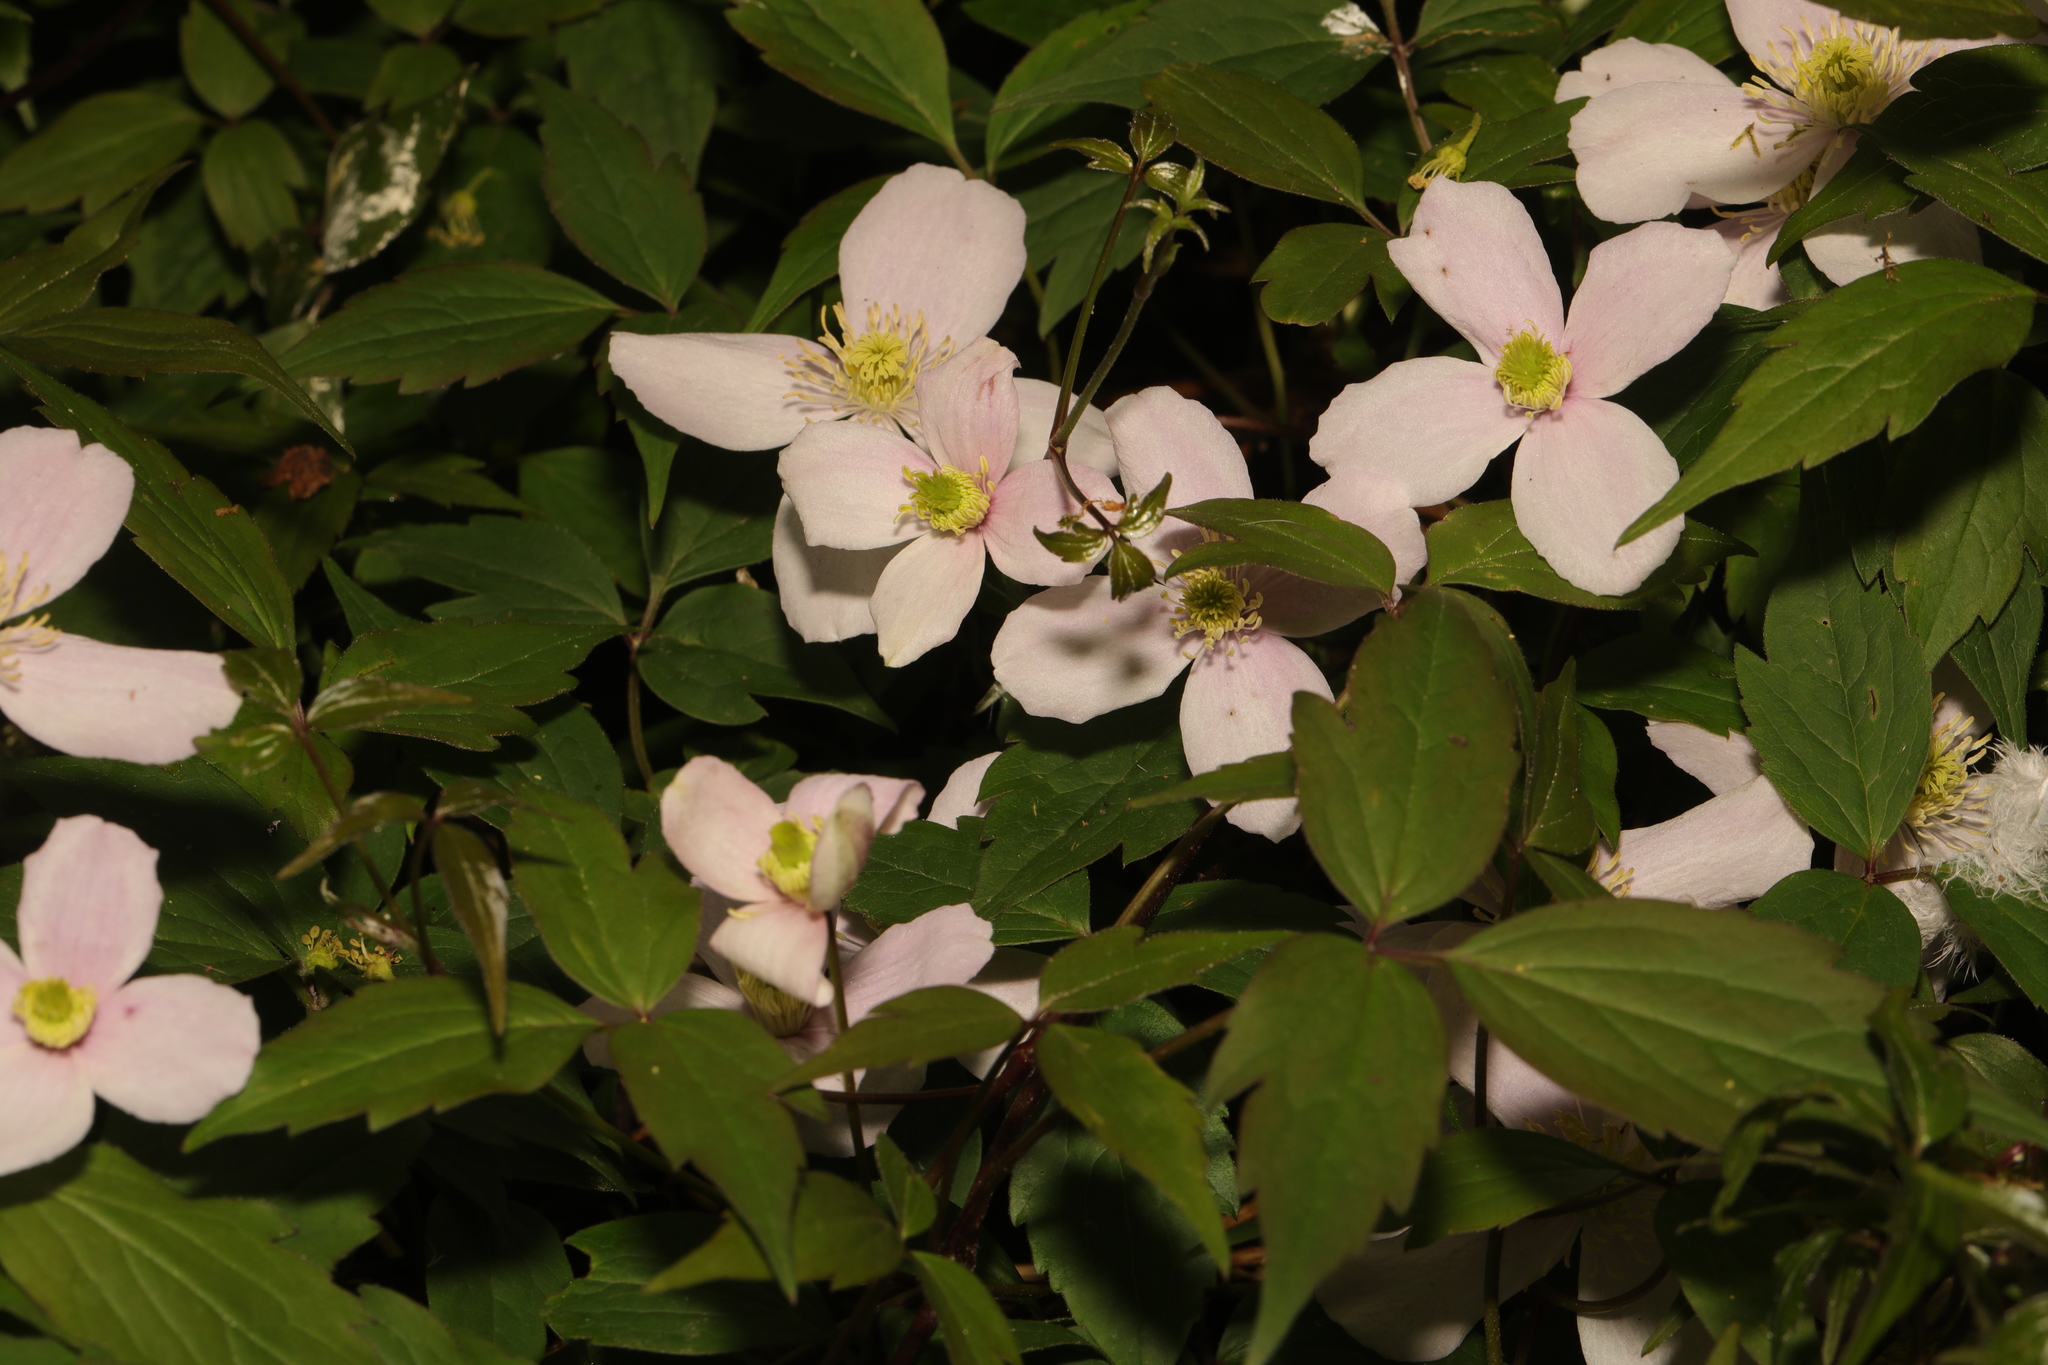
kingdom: Plantae
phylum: Tracheophyta
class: Magnoliopsida
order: Ranunculales
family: Ranunculaceae
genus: Clematis
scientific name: Clematis montana
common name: Himalayan clematis
